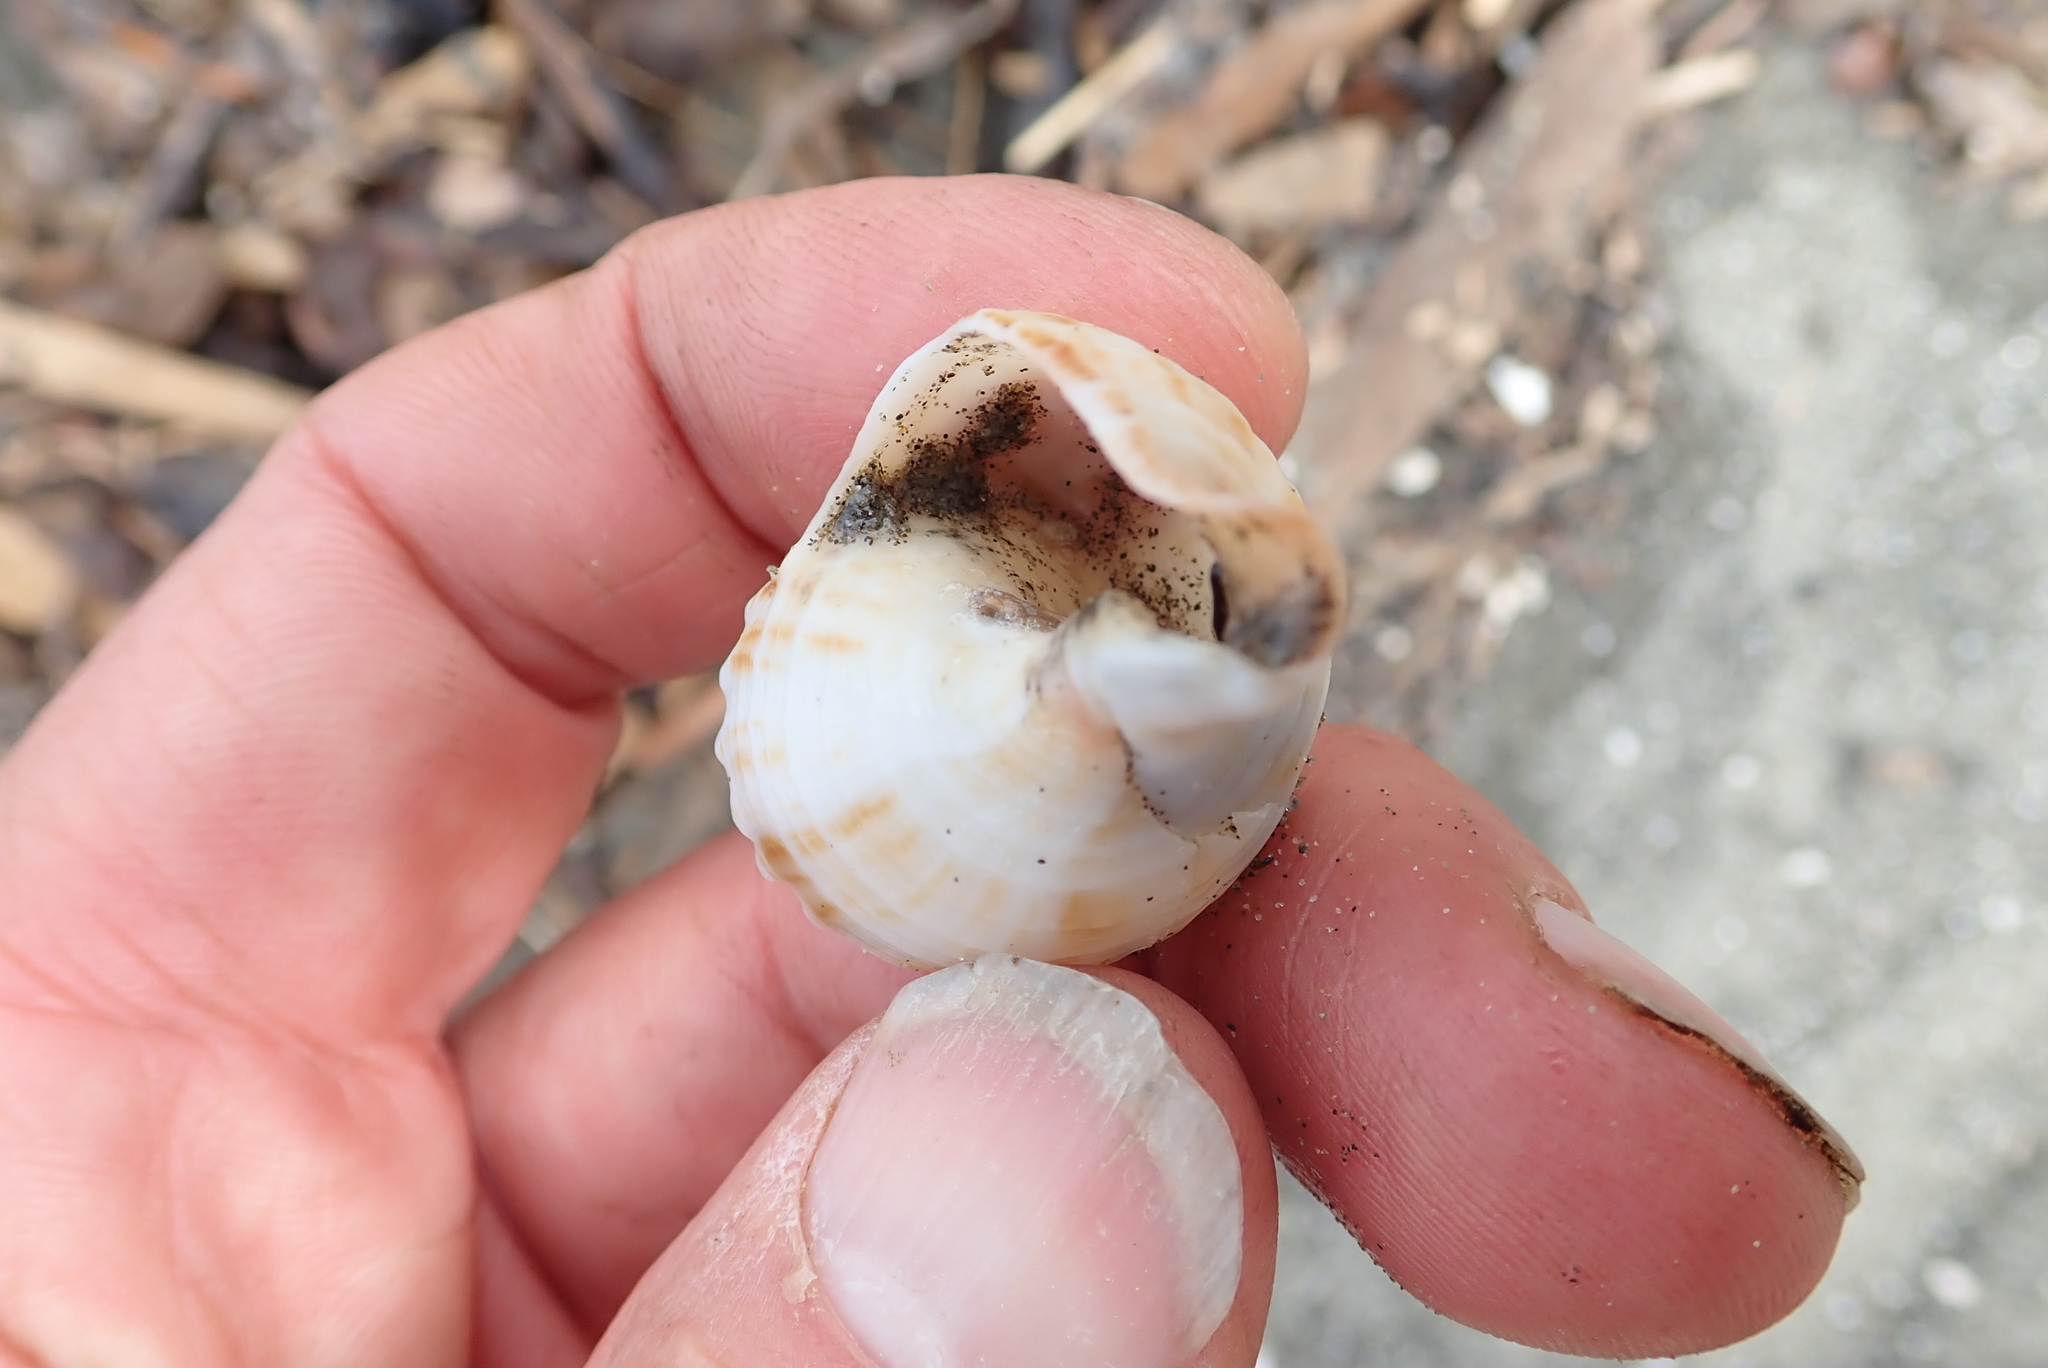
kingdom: Animalia
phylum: Mollusca
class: Gastropoda
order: Neogastropoda
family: Prosiphonidae
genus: Austrofusus
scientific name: Austrofusus glans
